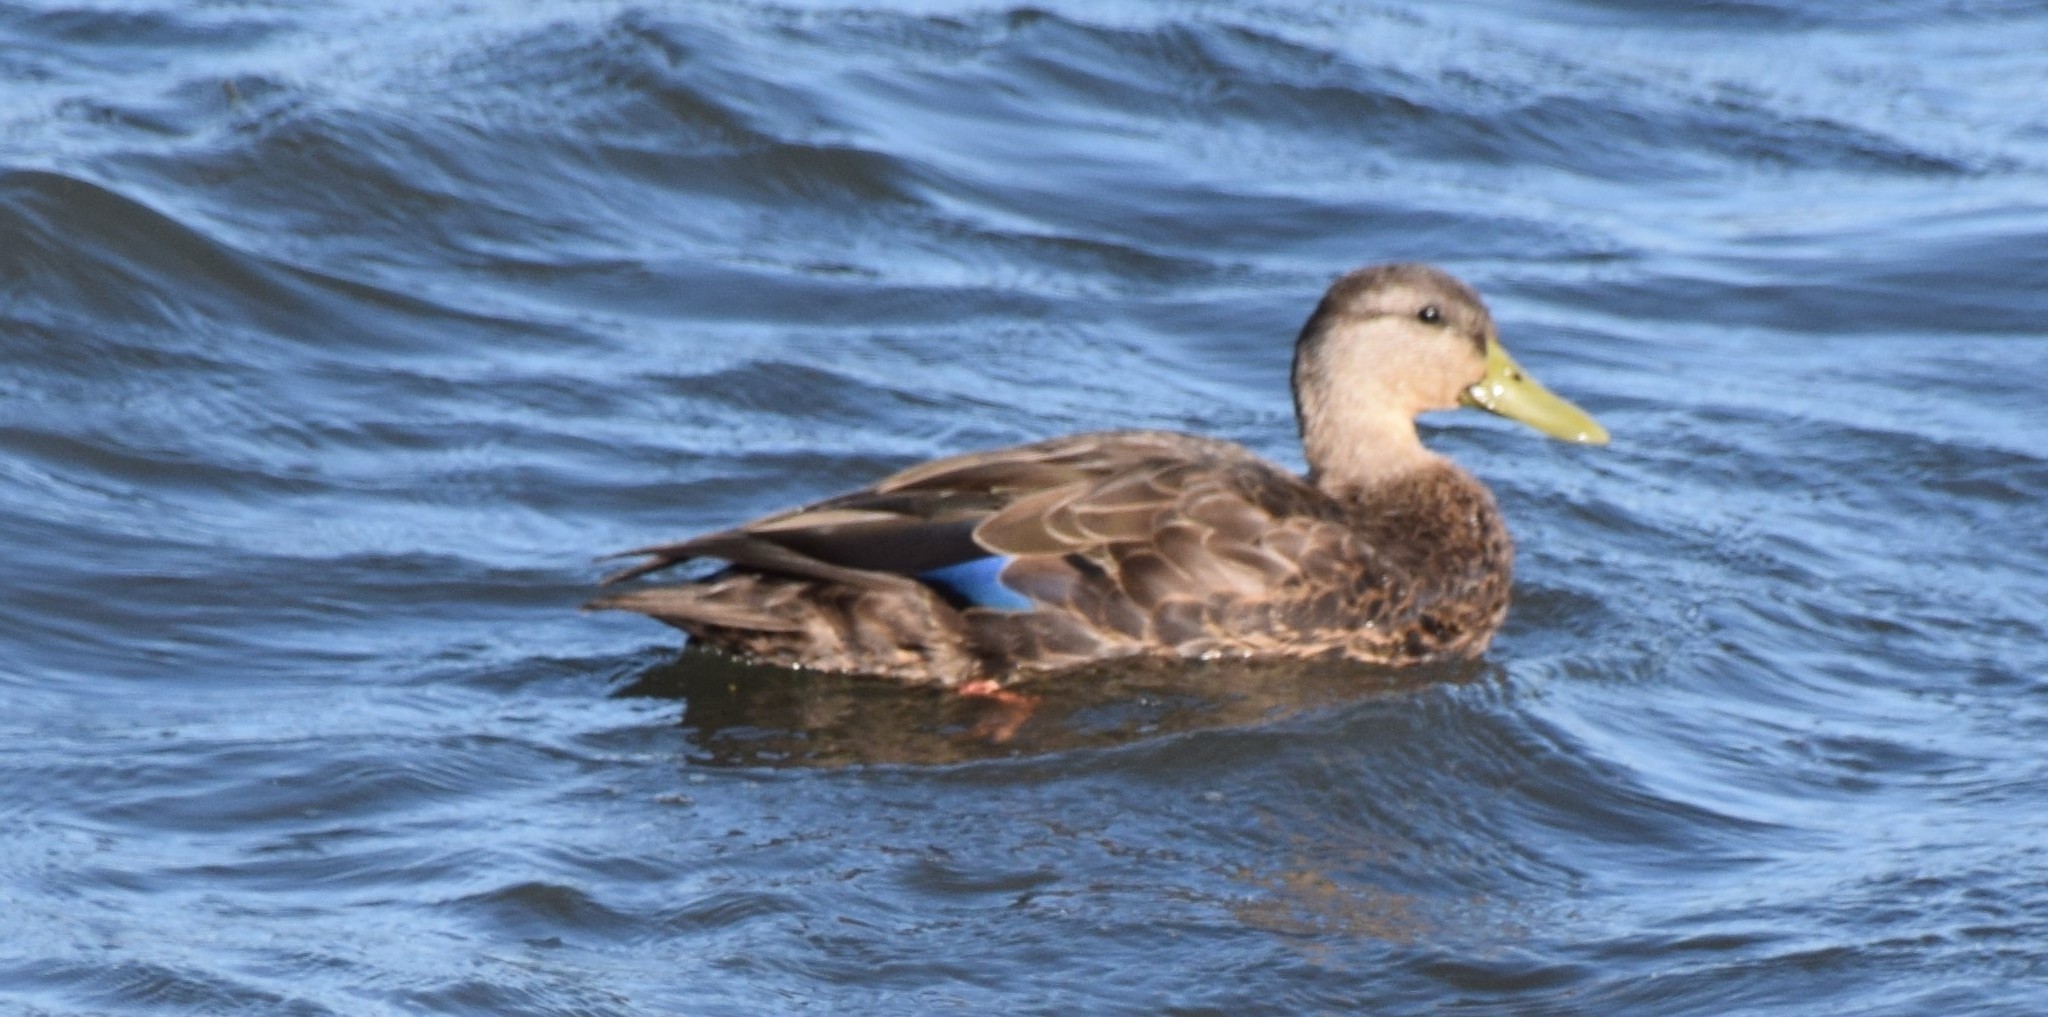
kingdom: Animalia
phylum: Chordata
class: Aves
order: Anseriformes
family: Anatidae
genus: Anas
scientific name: Anas rubripes
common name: American black duck
